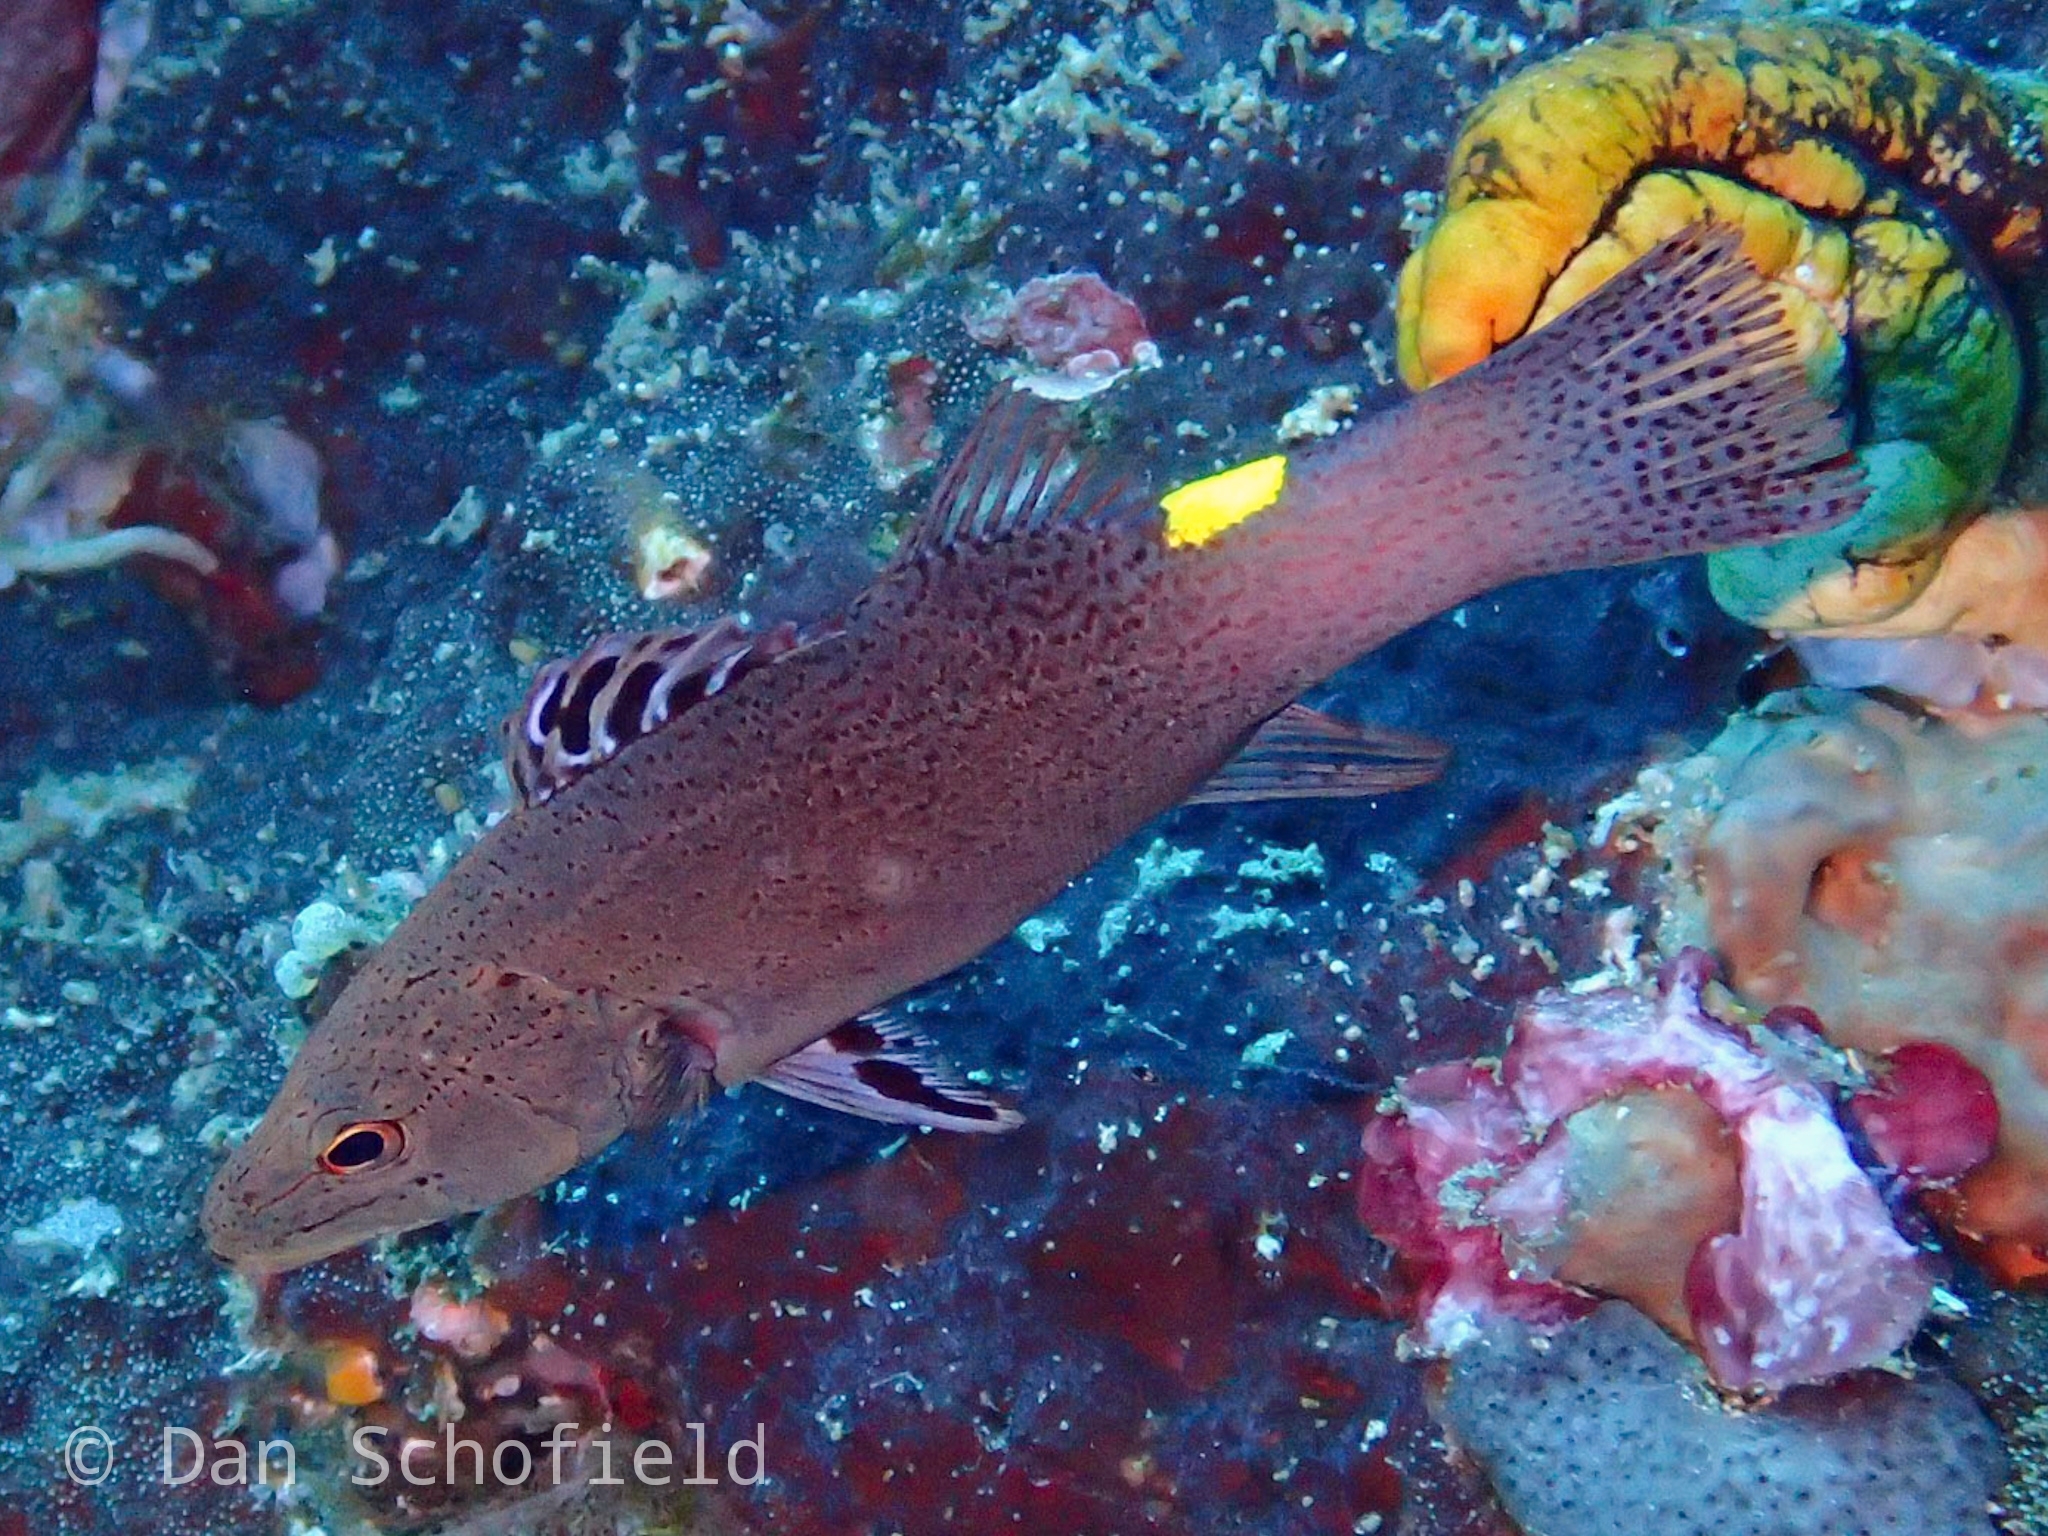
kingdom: Animalia
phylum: Chordata
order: Perciformes
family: Serranidae
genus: Belonoperca
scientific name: Belonoperca chabanaudi
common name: Arrowhead soapfish
